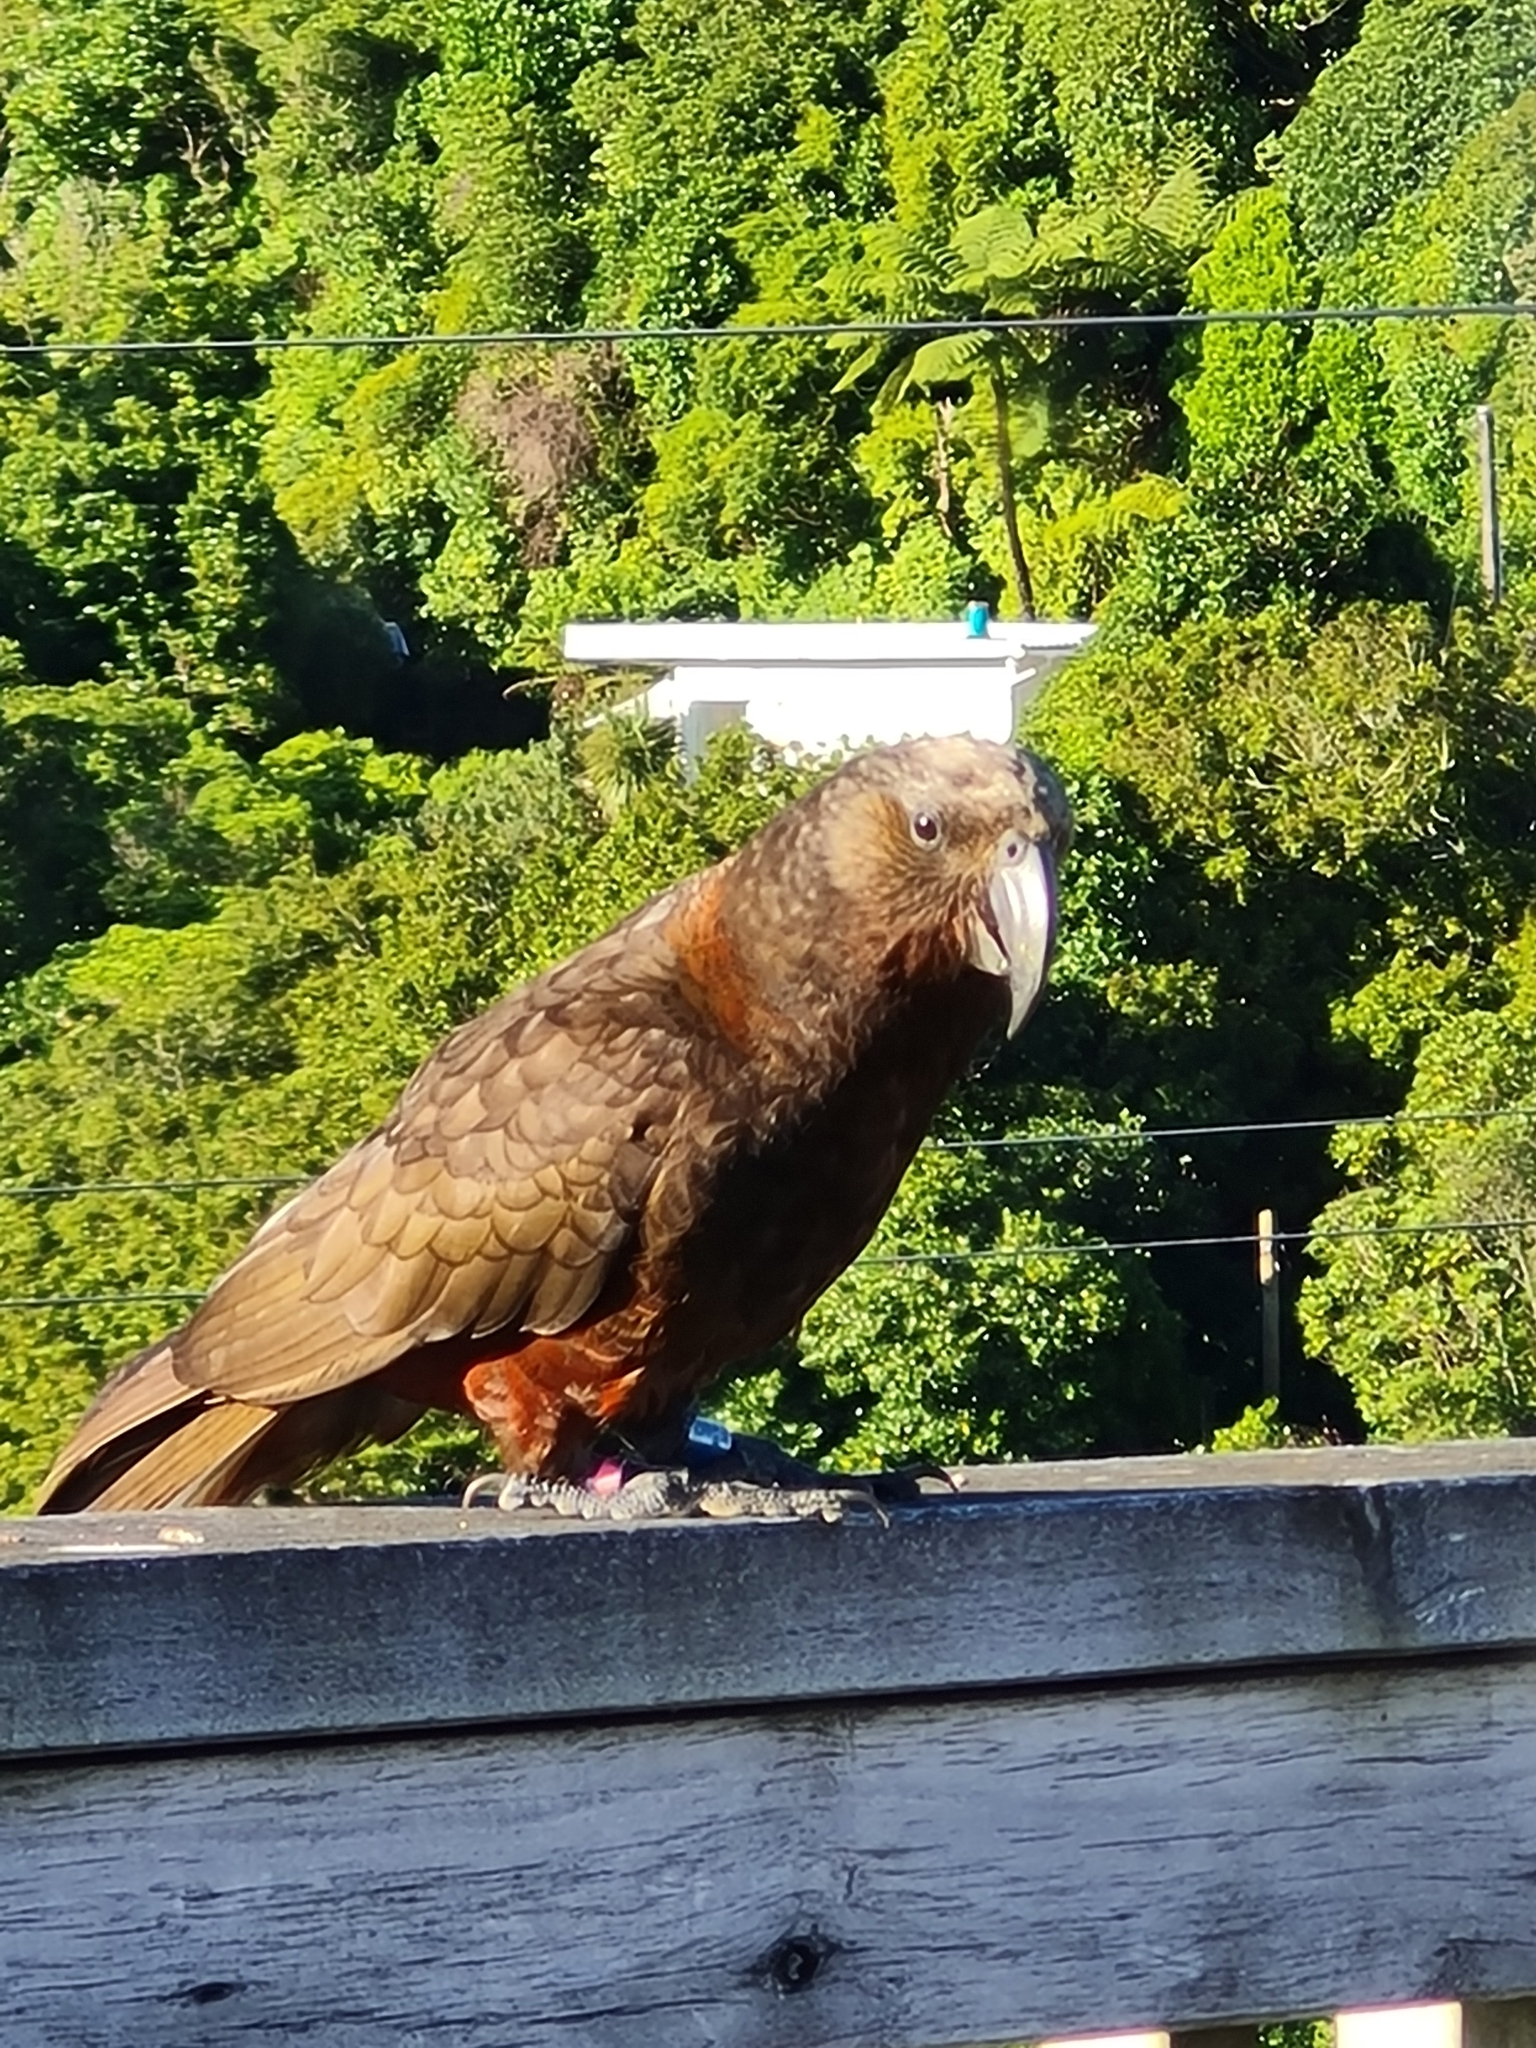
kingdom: Animalia
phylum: Chordata
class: Aves
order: Psittaciformes
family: Psittacidae
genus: Nestor
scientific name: Nestor meridionalis
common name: New zealand kaka
